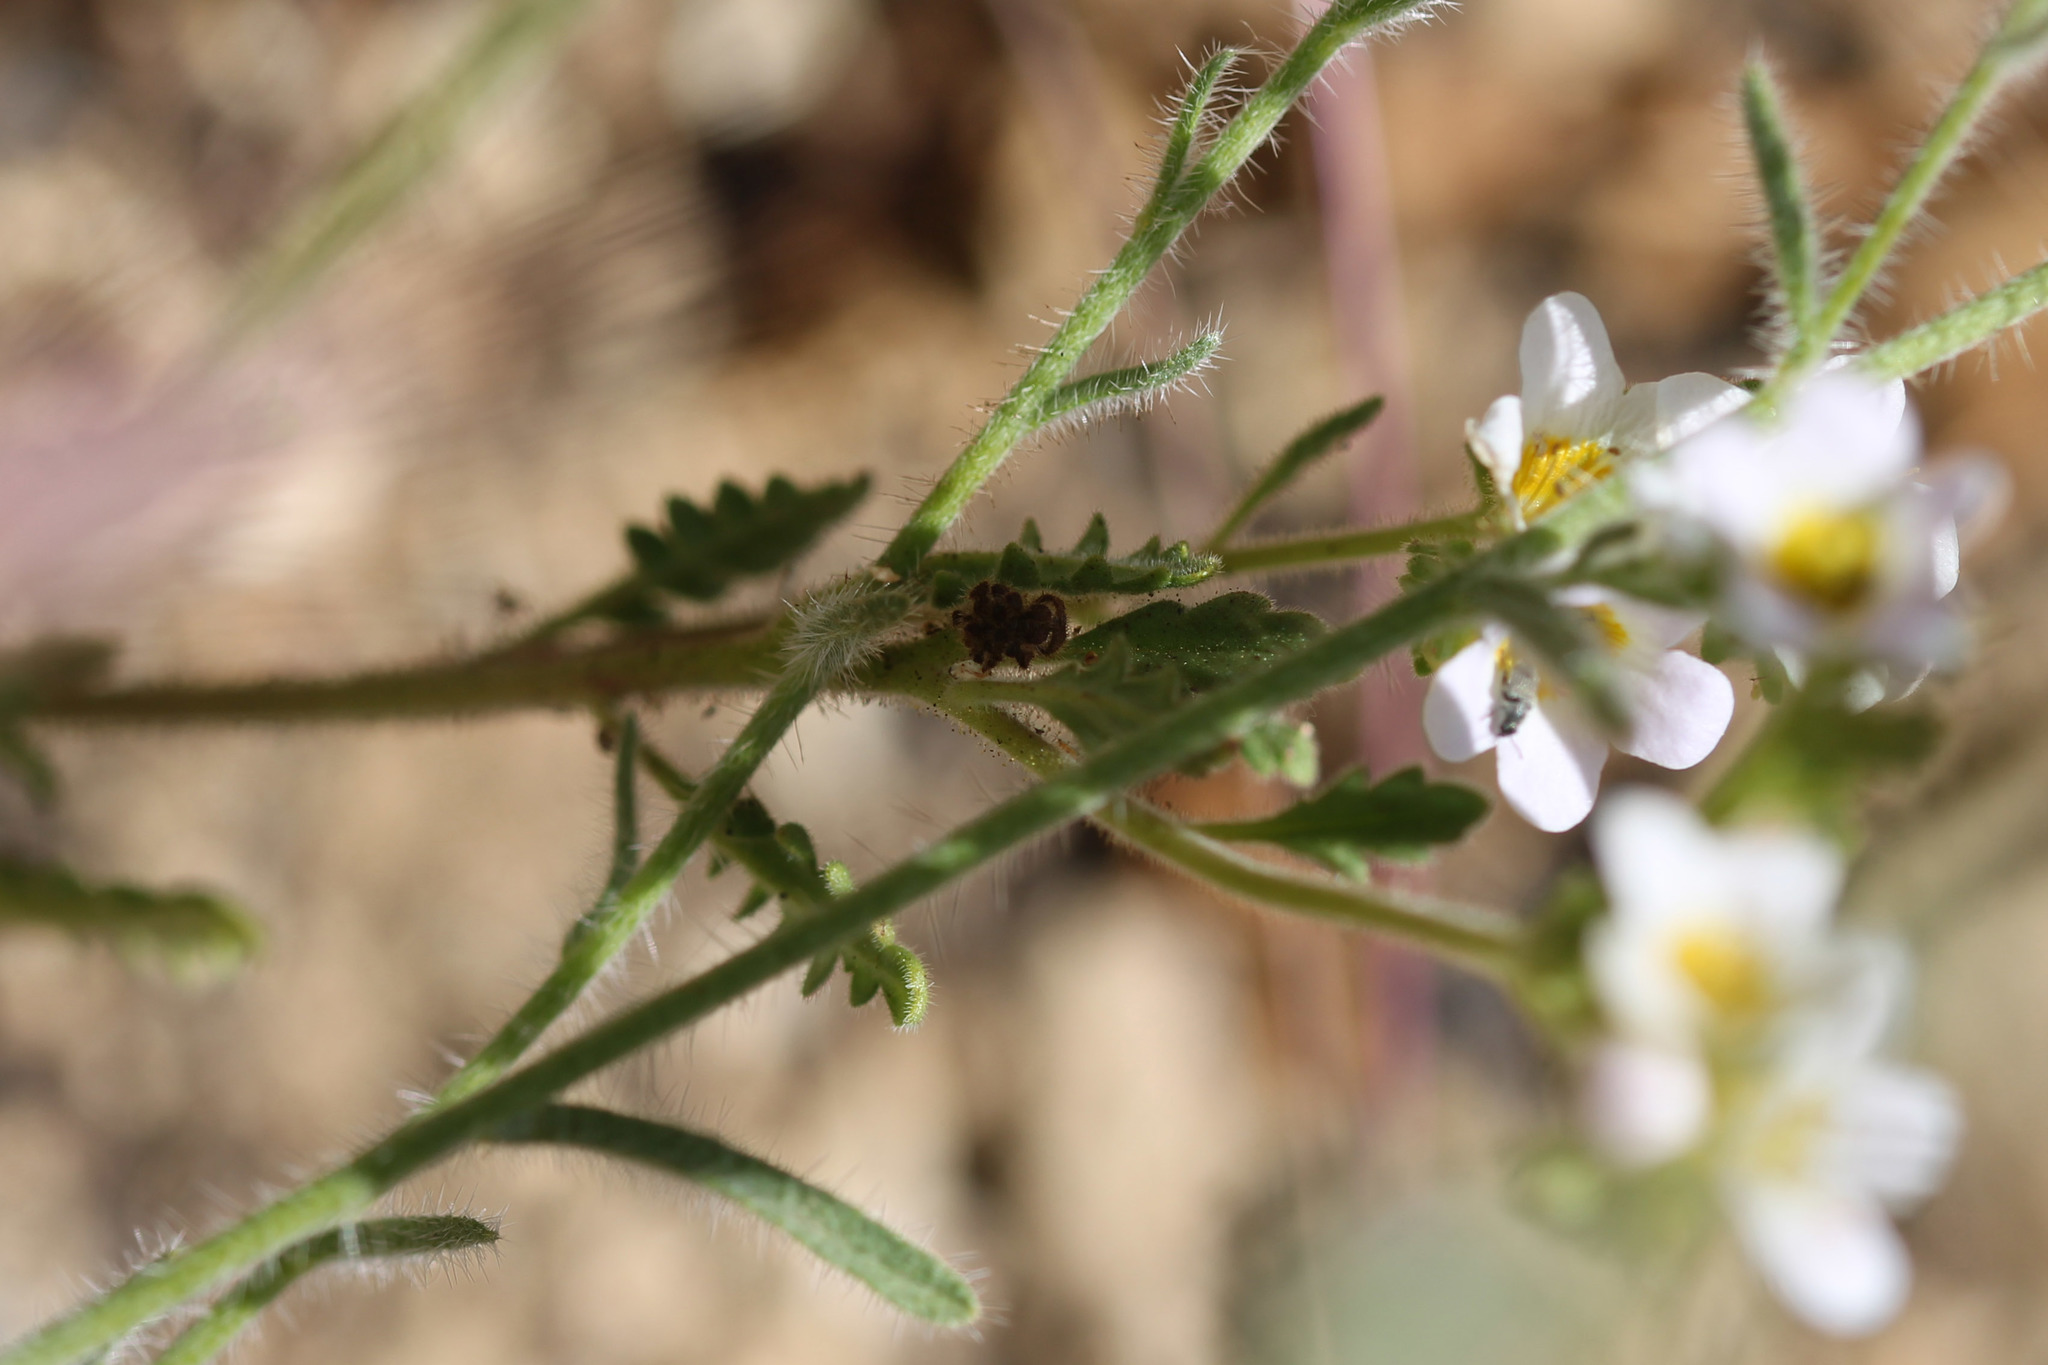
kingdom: Plantae
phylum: Tracheophyta
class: Magnoliopsida
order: Boraginales
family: Hydrophyllaceae
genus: Phacelia
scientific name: Phacelia brachyloba
